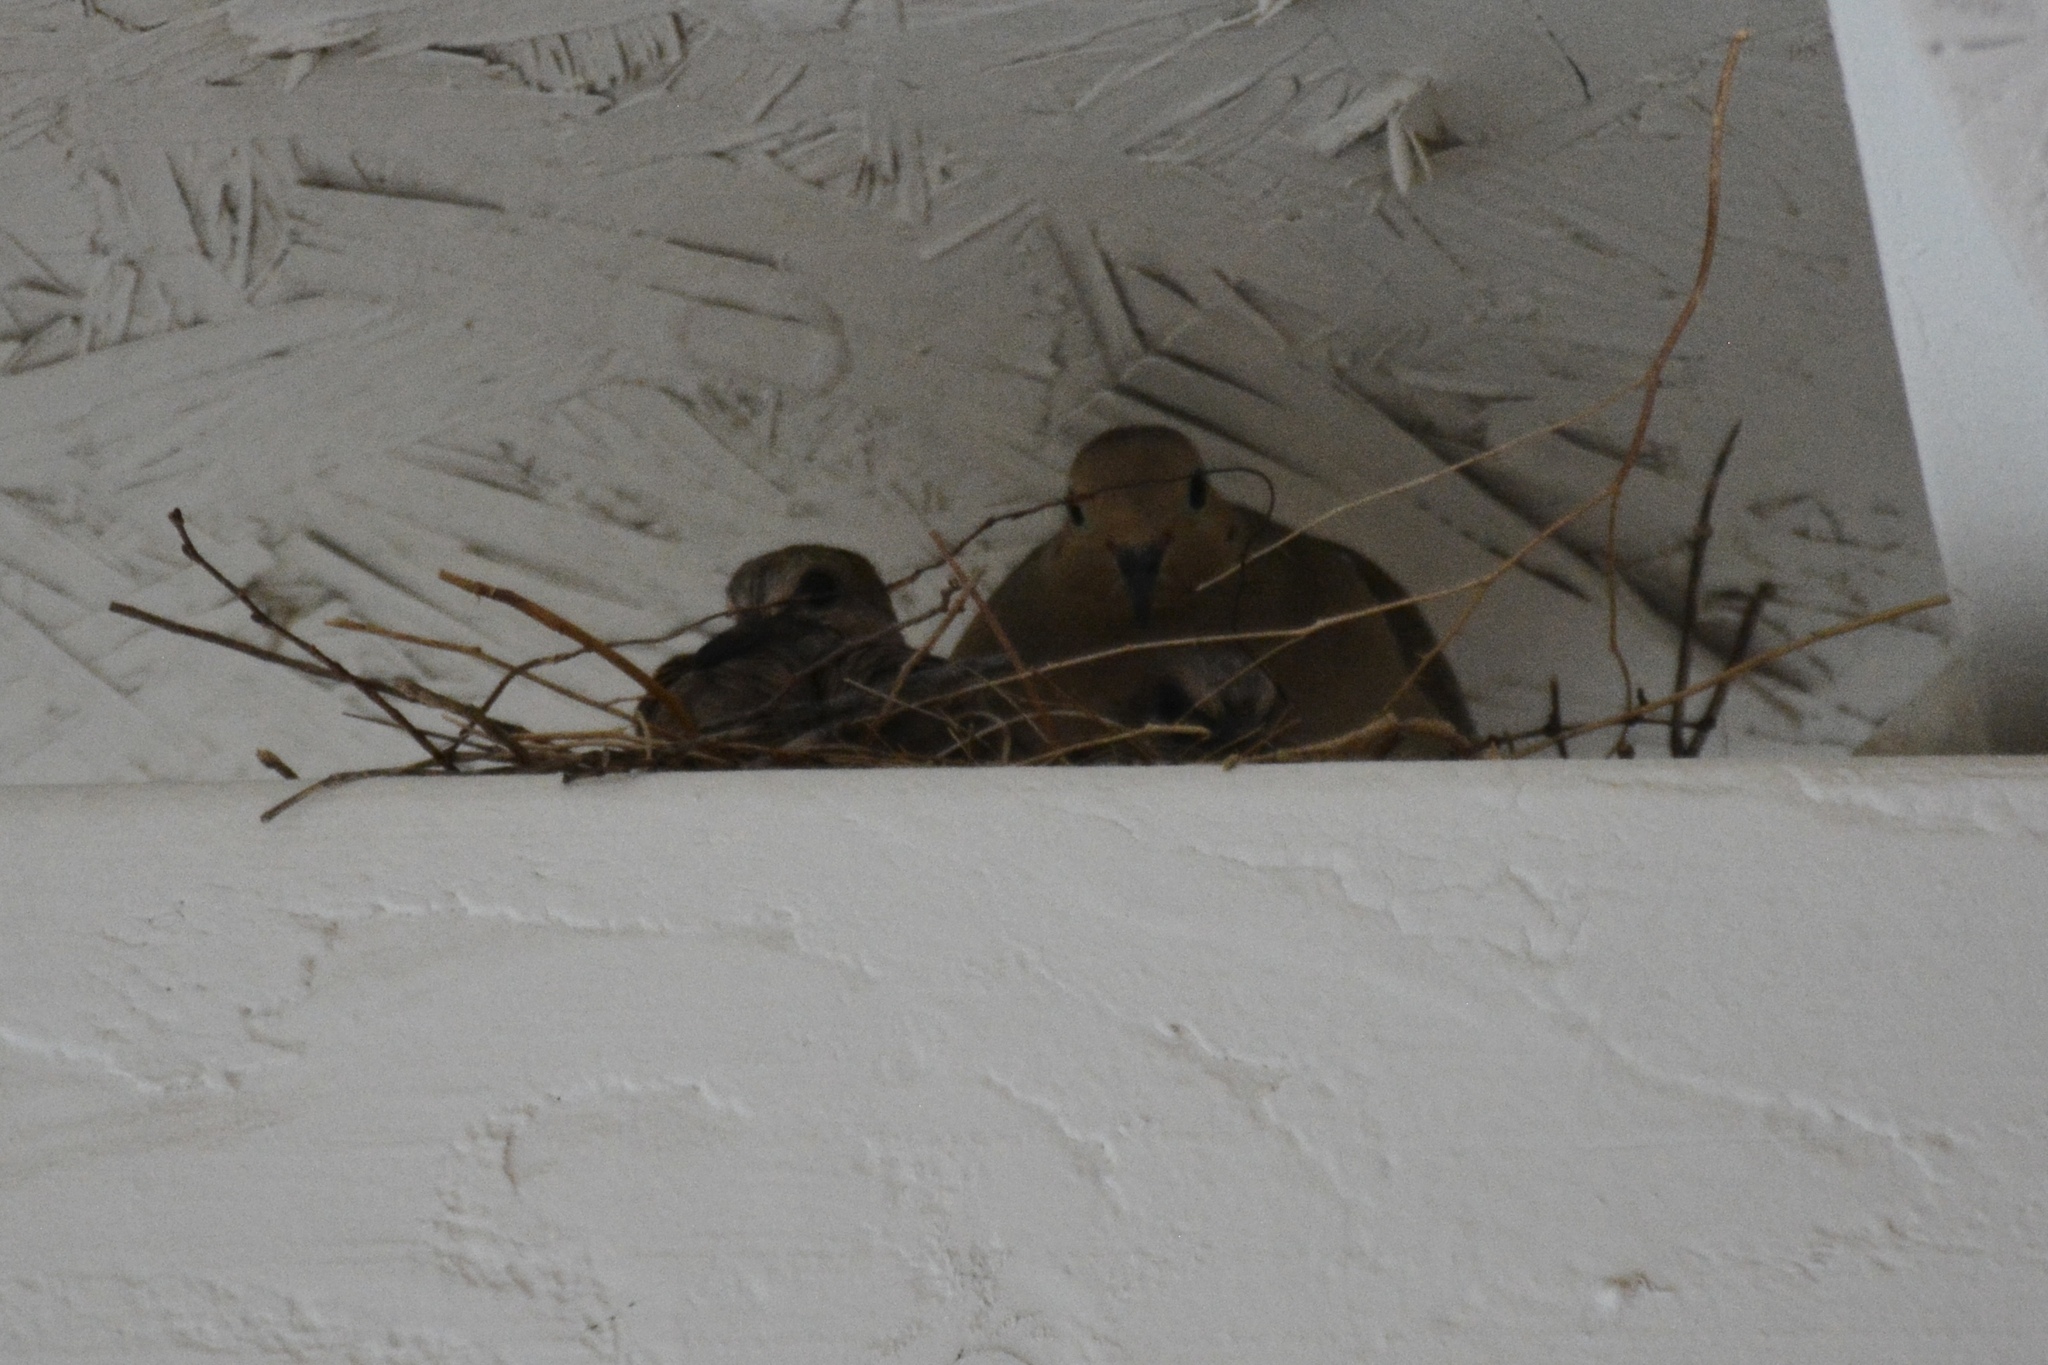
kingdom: Animalia
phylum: Chordata
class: Aves
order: Columbiformes
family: Columbidae
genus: Zenaida
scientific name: Zenaida macroura
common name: Mourning dove
